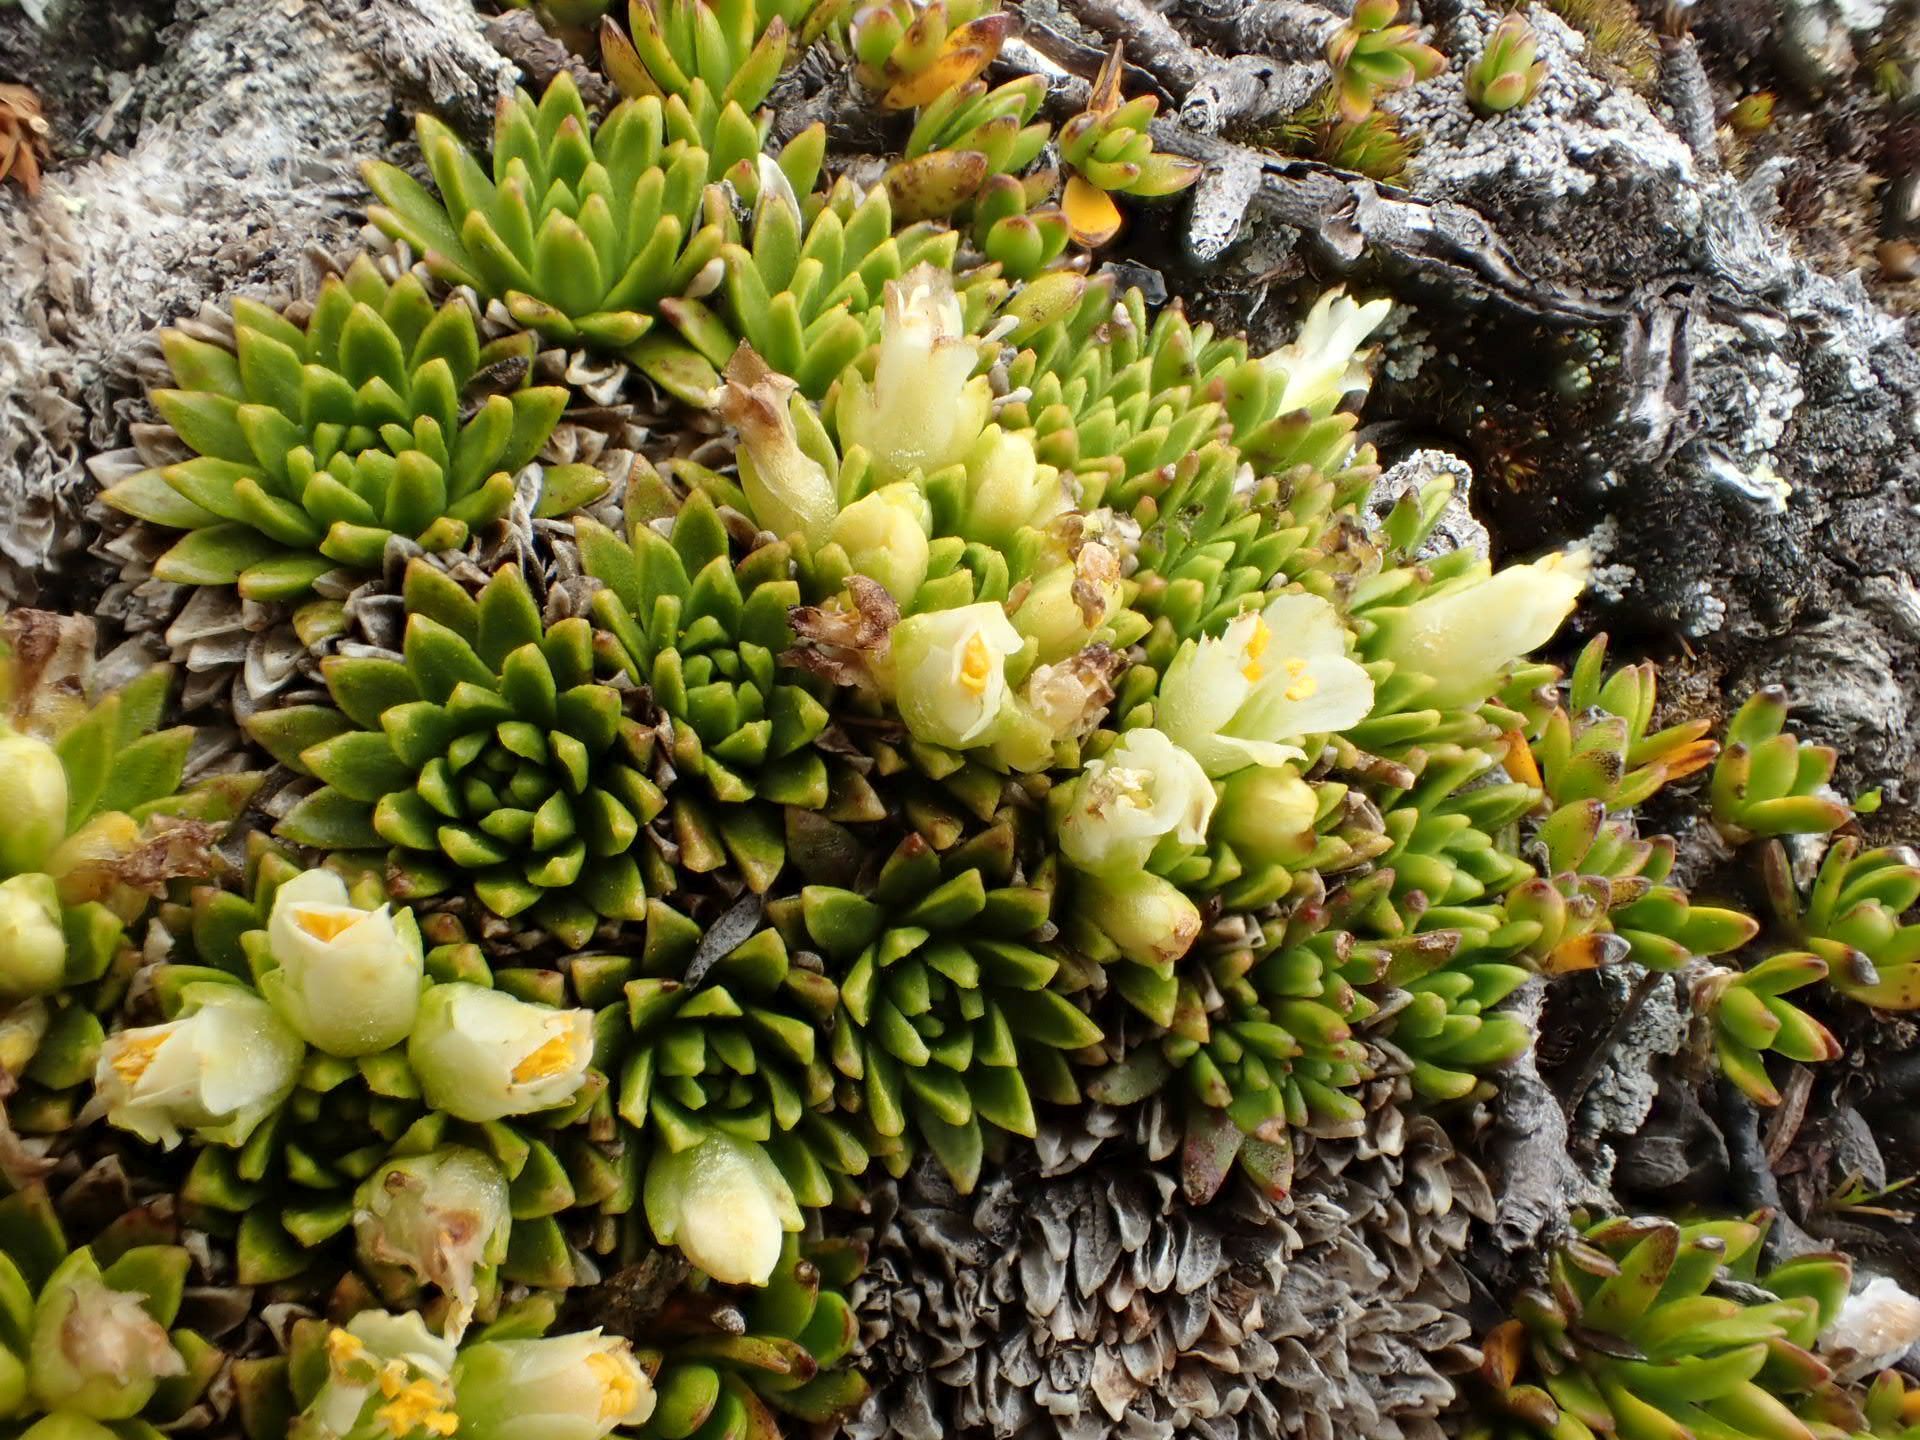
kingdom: Plantae
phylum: Tracheophyta
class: Magnoliopsida
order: Caryophyllales
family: Montiaceae
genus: Hectorella
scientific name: Hectorella caespitosa
